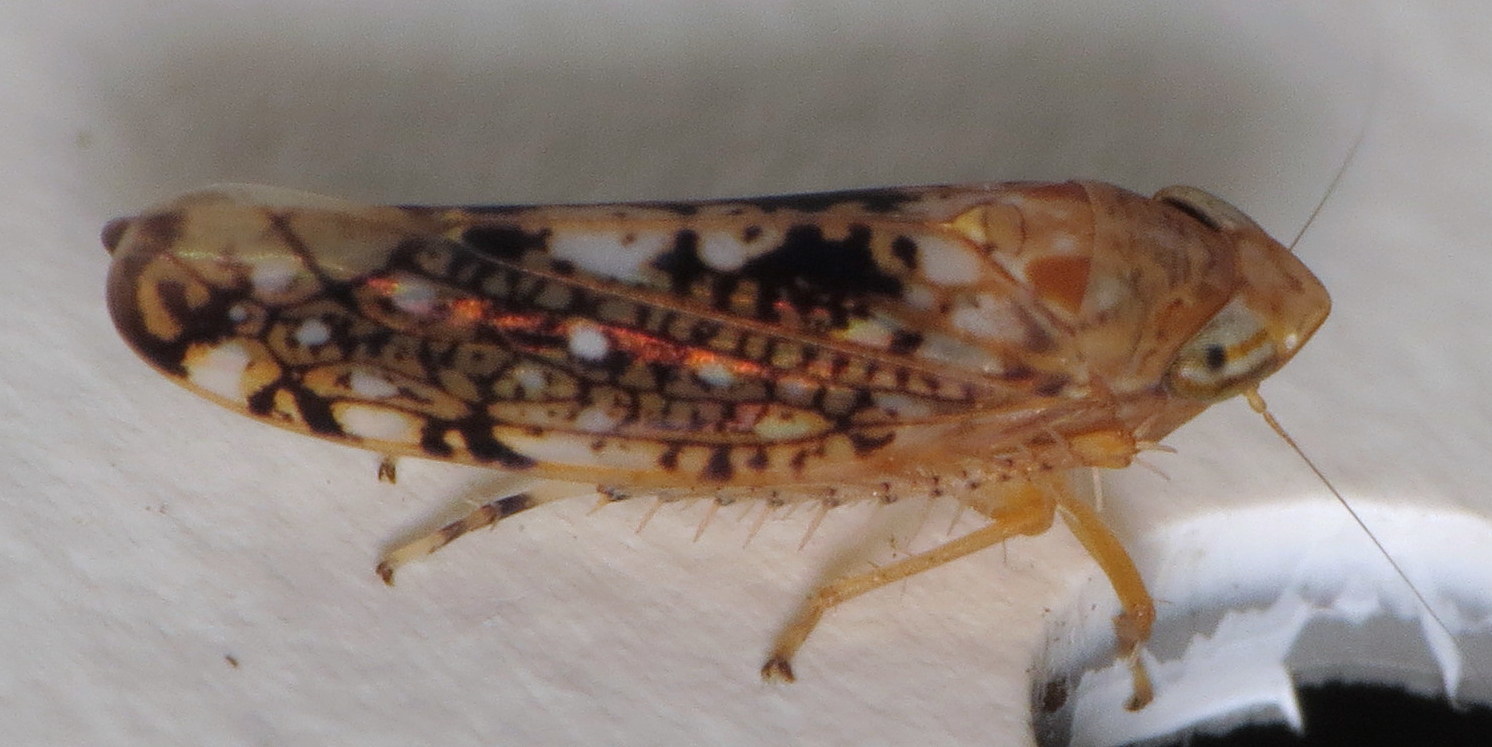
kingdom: Animalia
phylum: Arthropoda
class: Insecta
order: Hemiptera
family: Cicadellidae
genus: Prescottia
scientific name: Prescottia lobata
